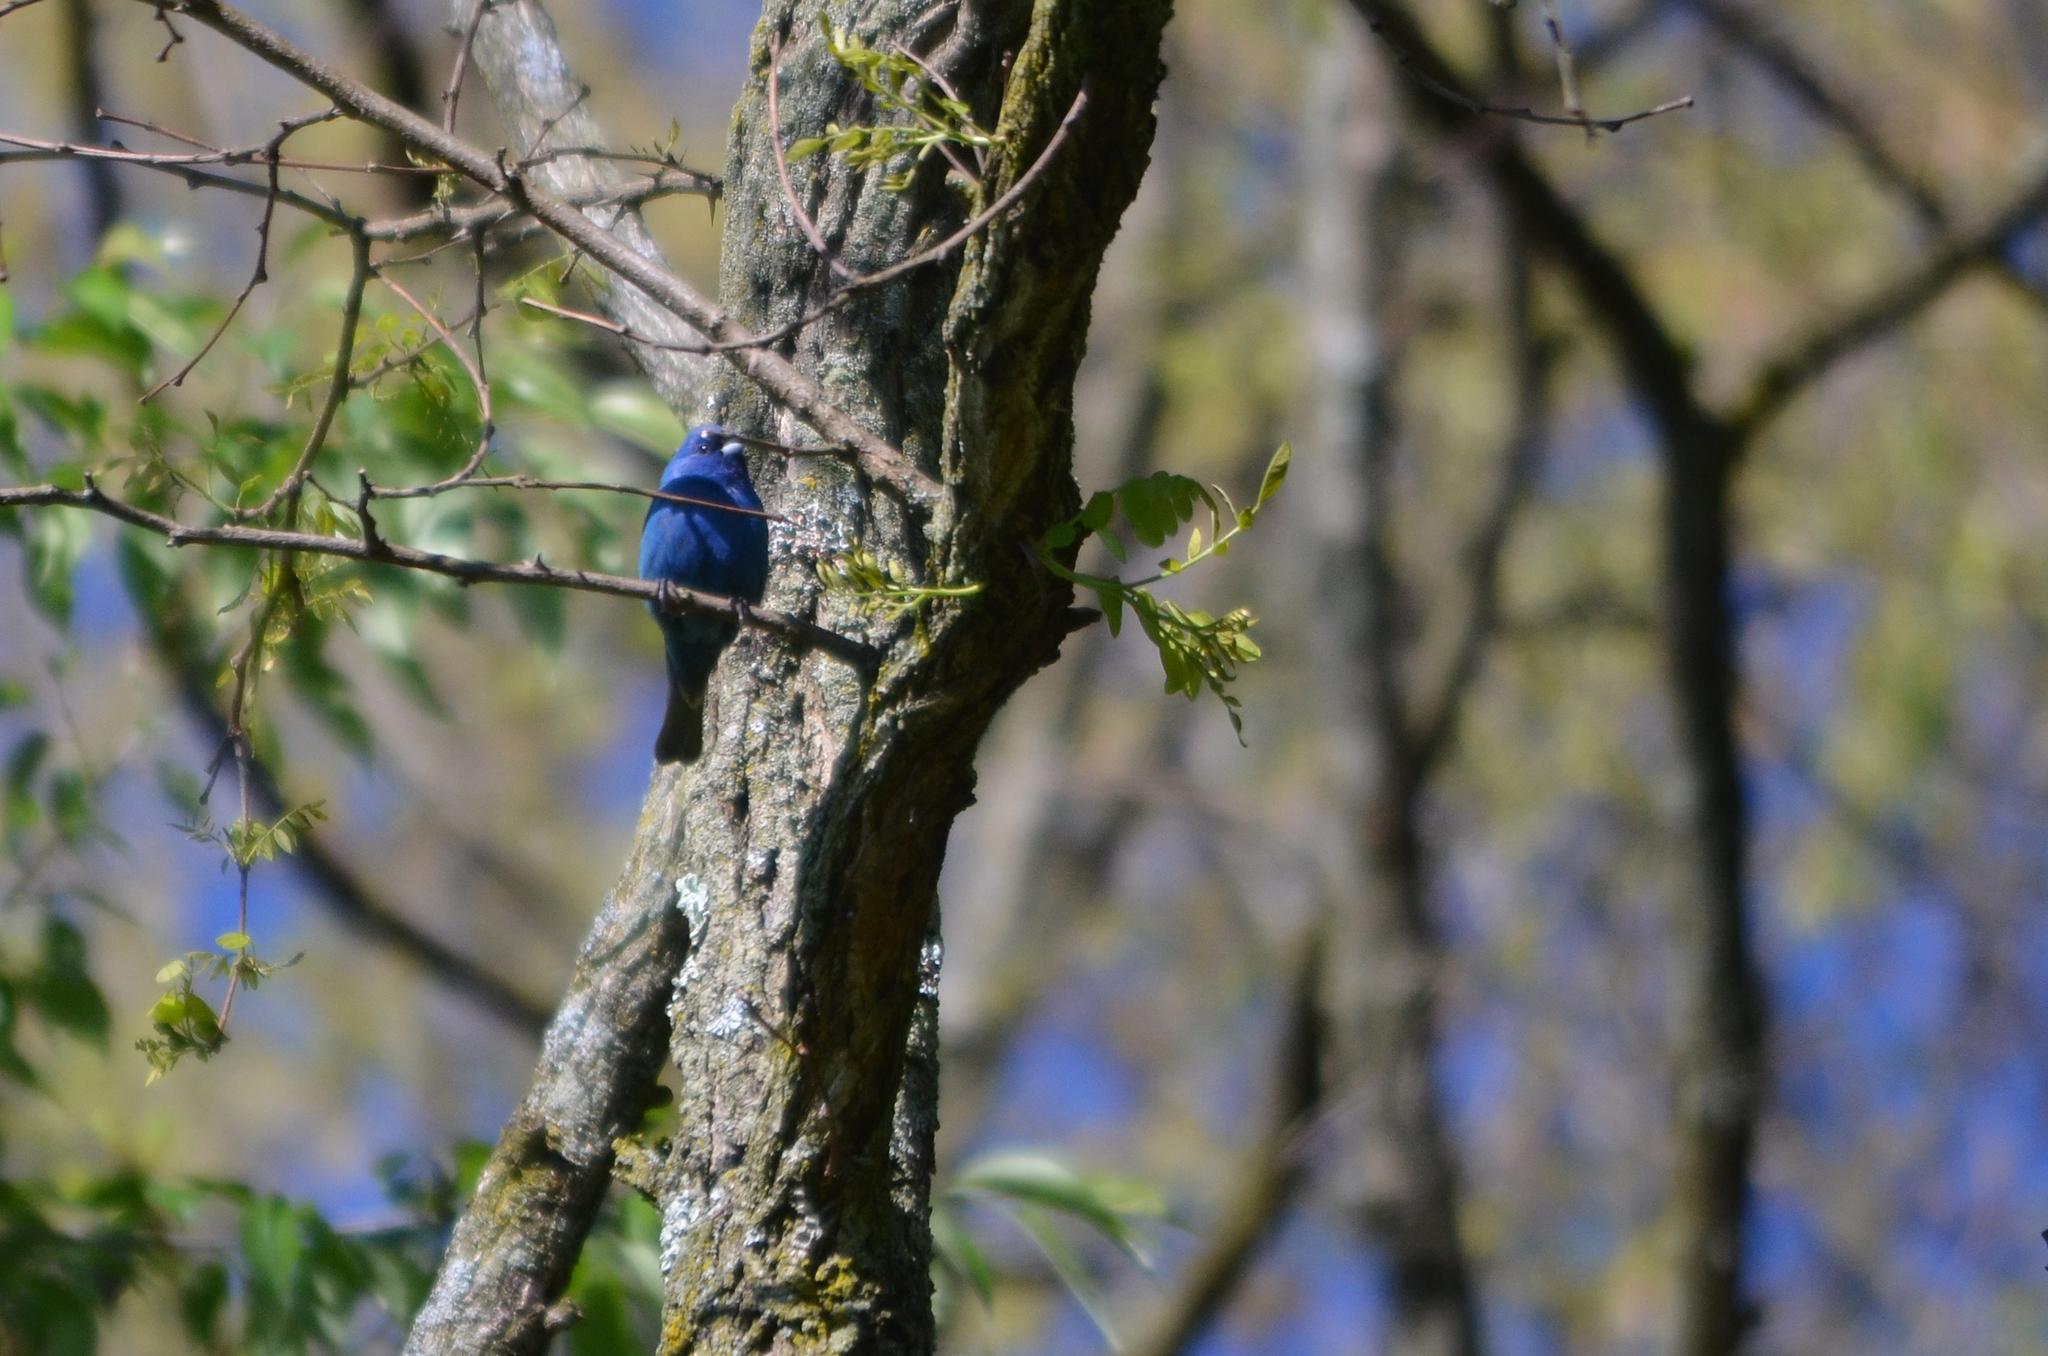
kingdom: Animalia
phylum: Chordata
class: Aves
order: Passeriformes
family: Cardinalidae
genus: Passerina
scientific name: Passerina cyanea
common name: Indigo bunting
